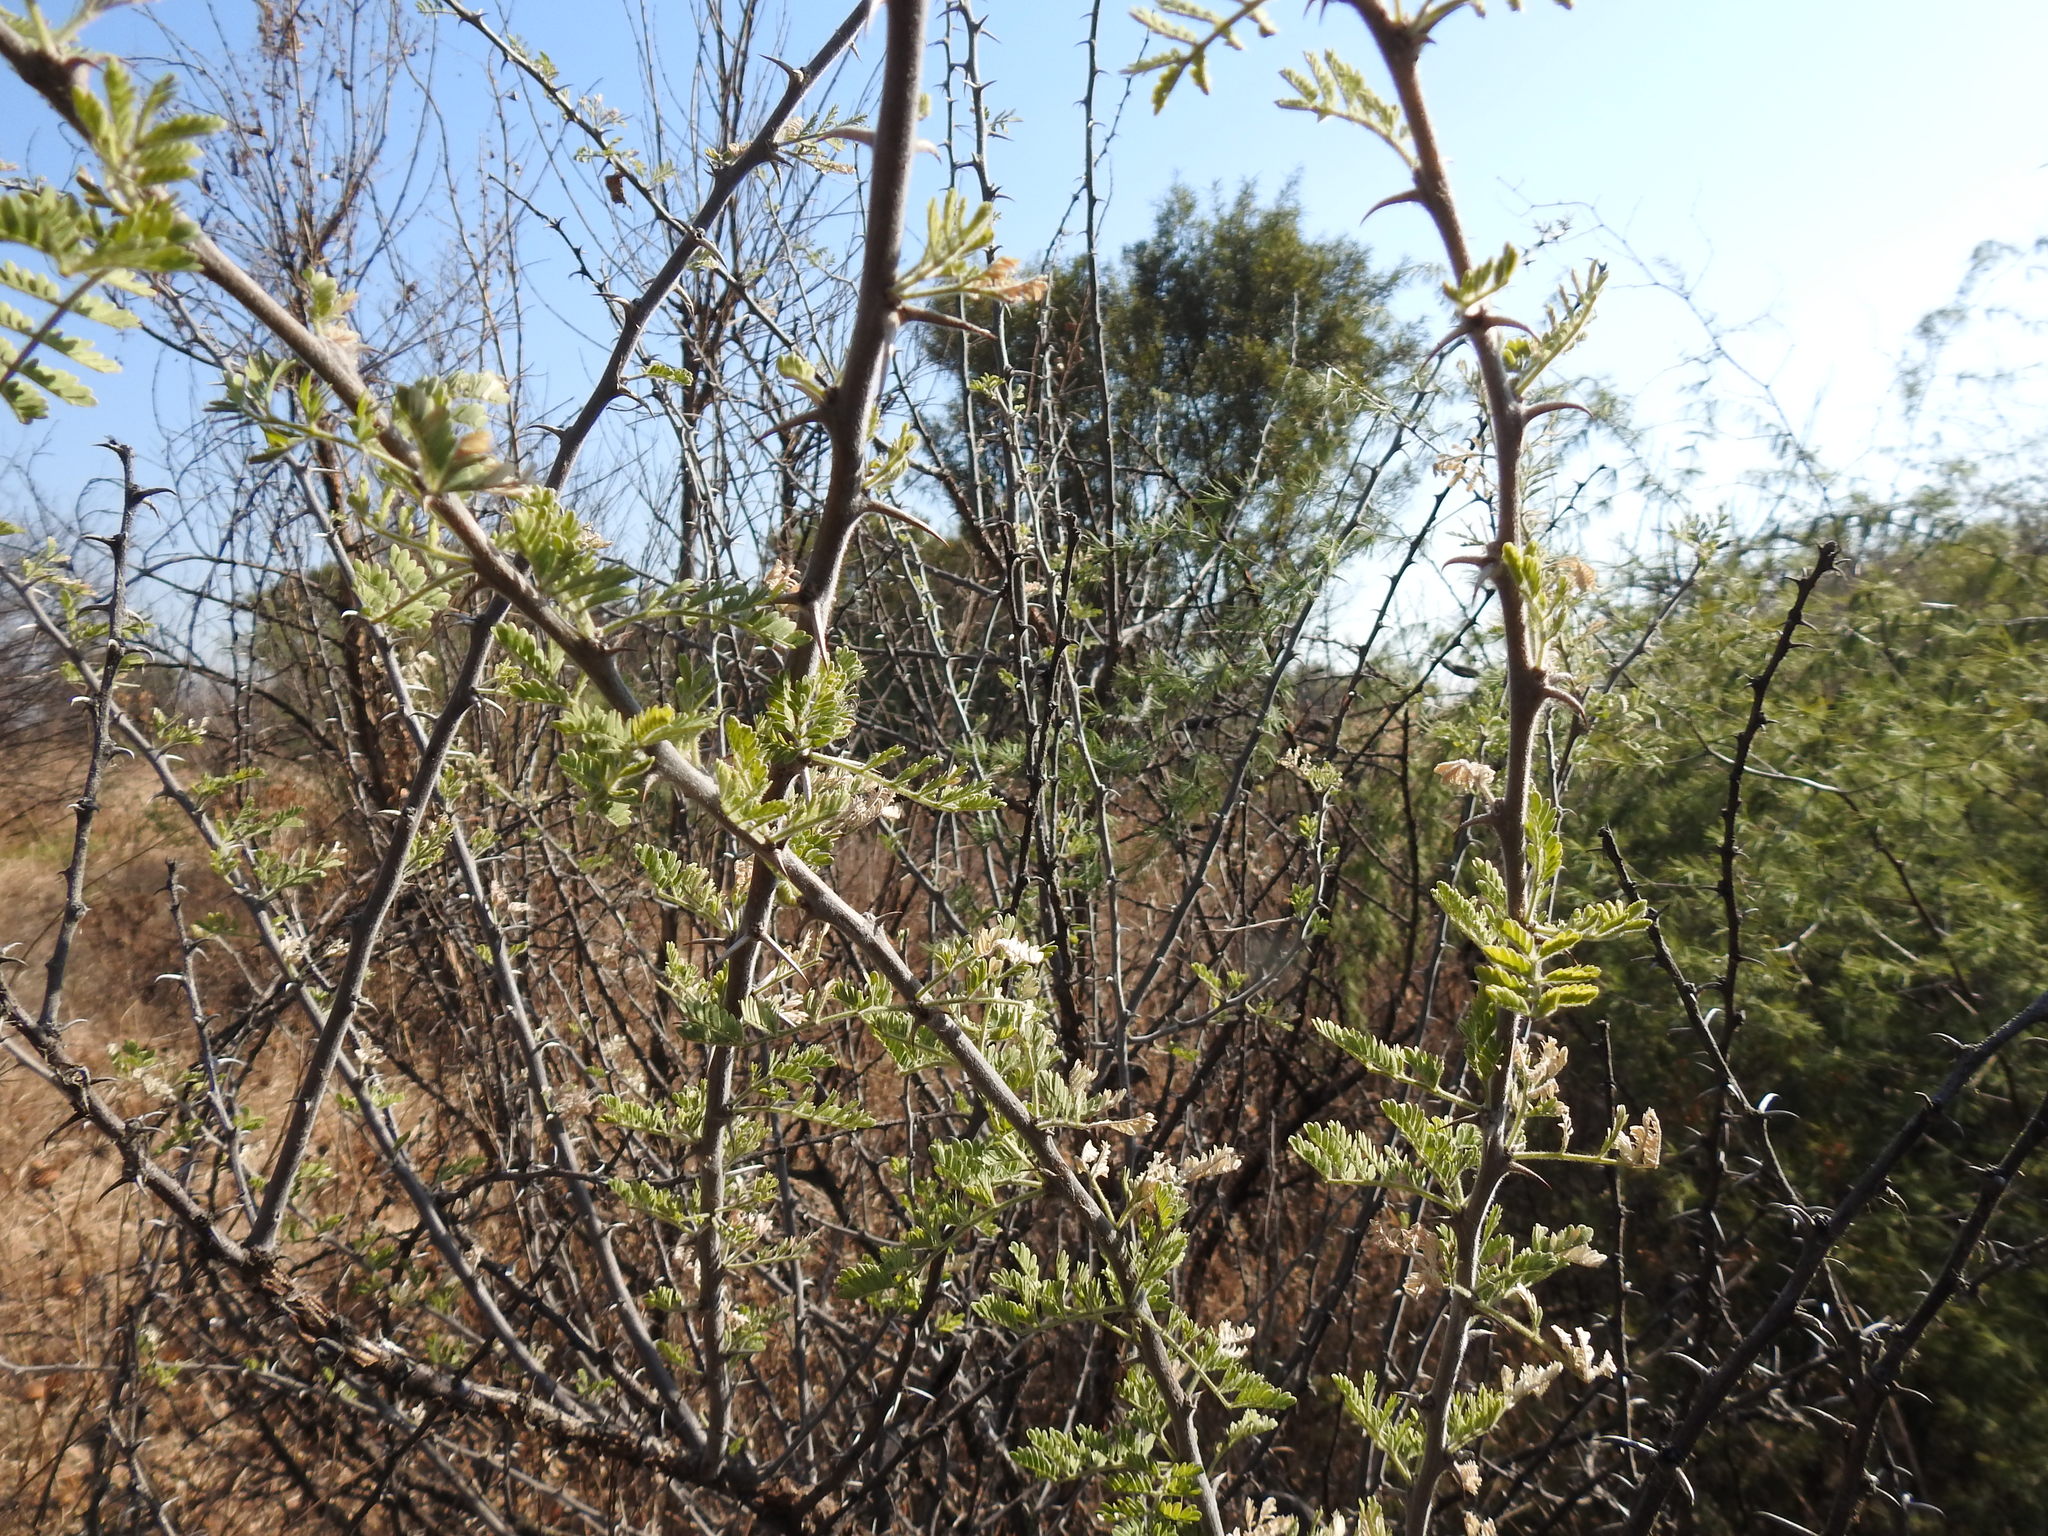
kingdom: Plantae
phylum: Tracheophyta
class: Magnoliopsida
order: Fabales
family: Fabaceae
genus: Vachellia
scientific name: Vachellia hebeclada
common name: Candle thorn
